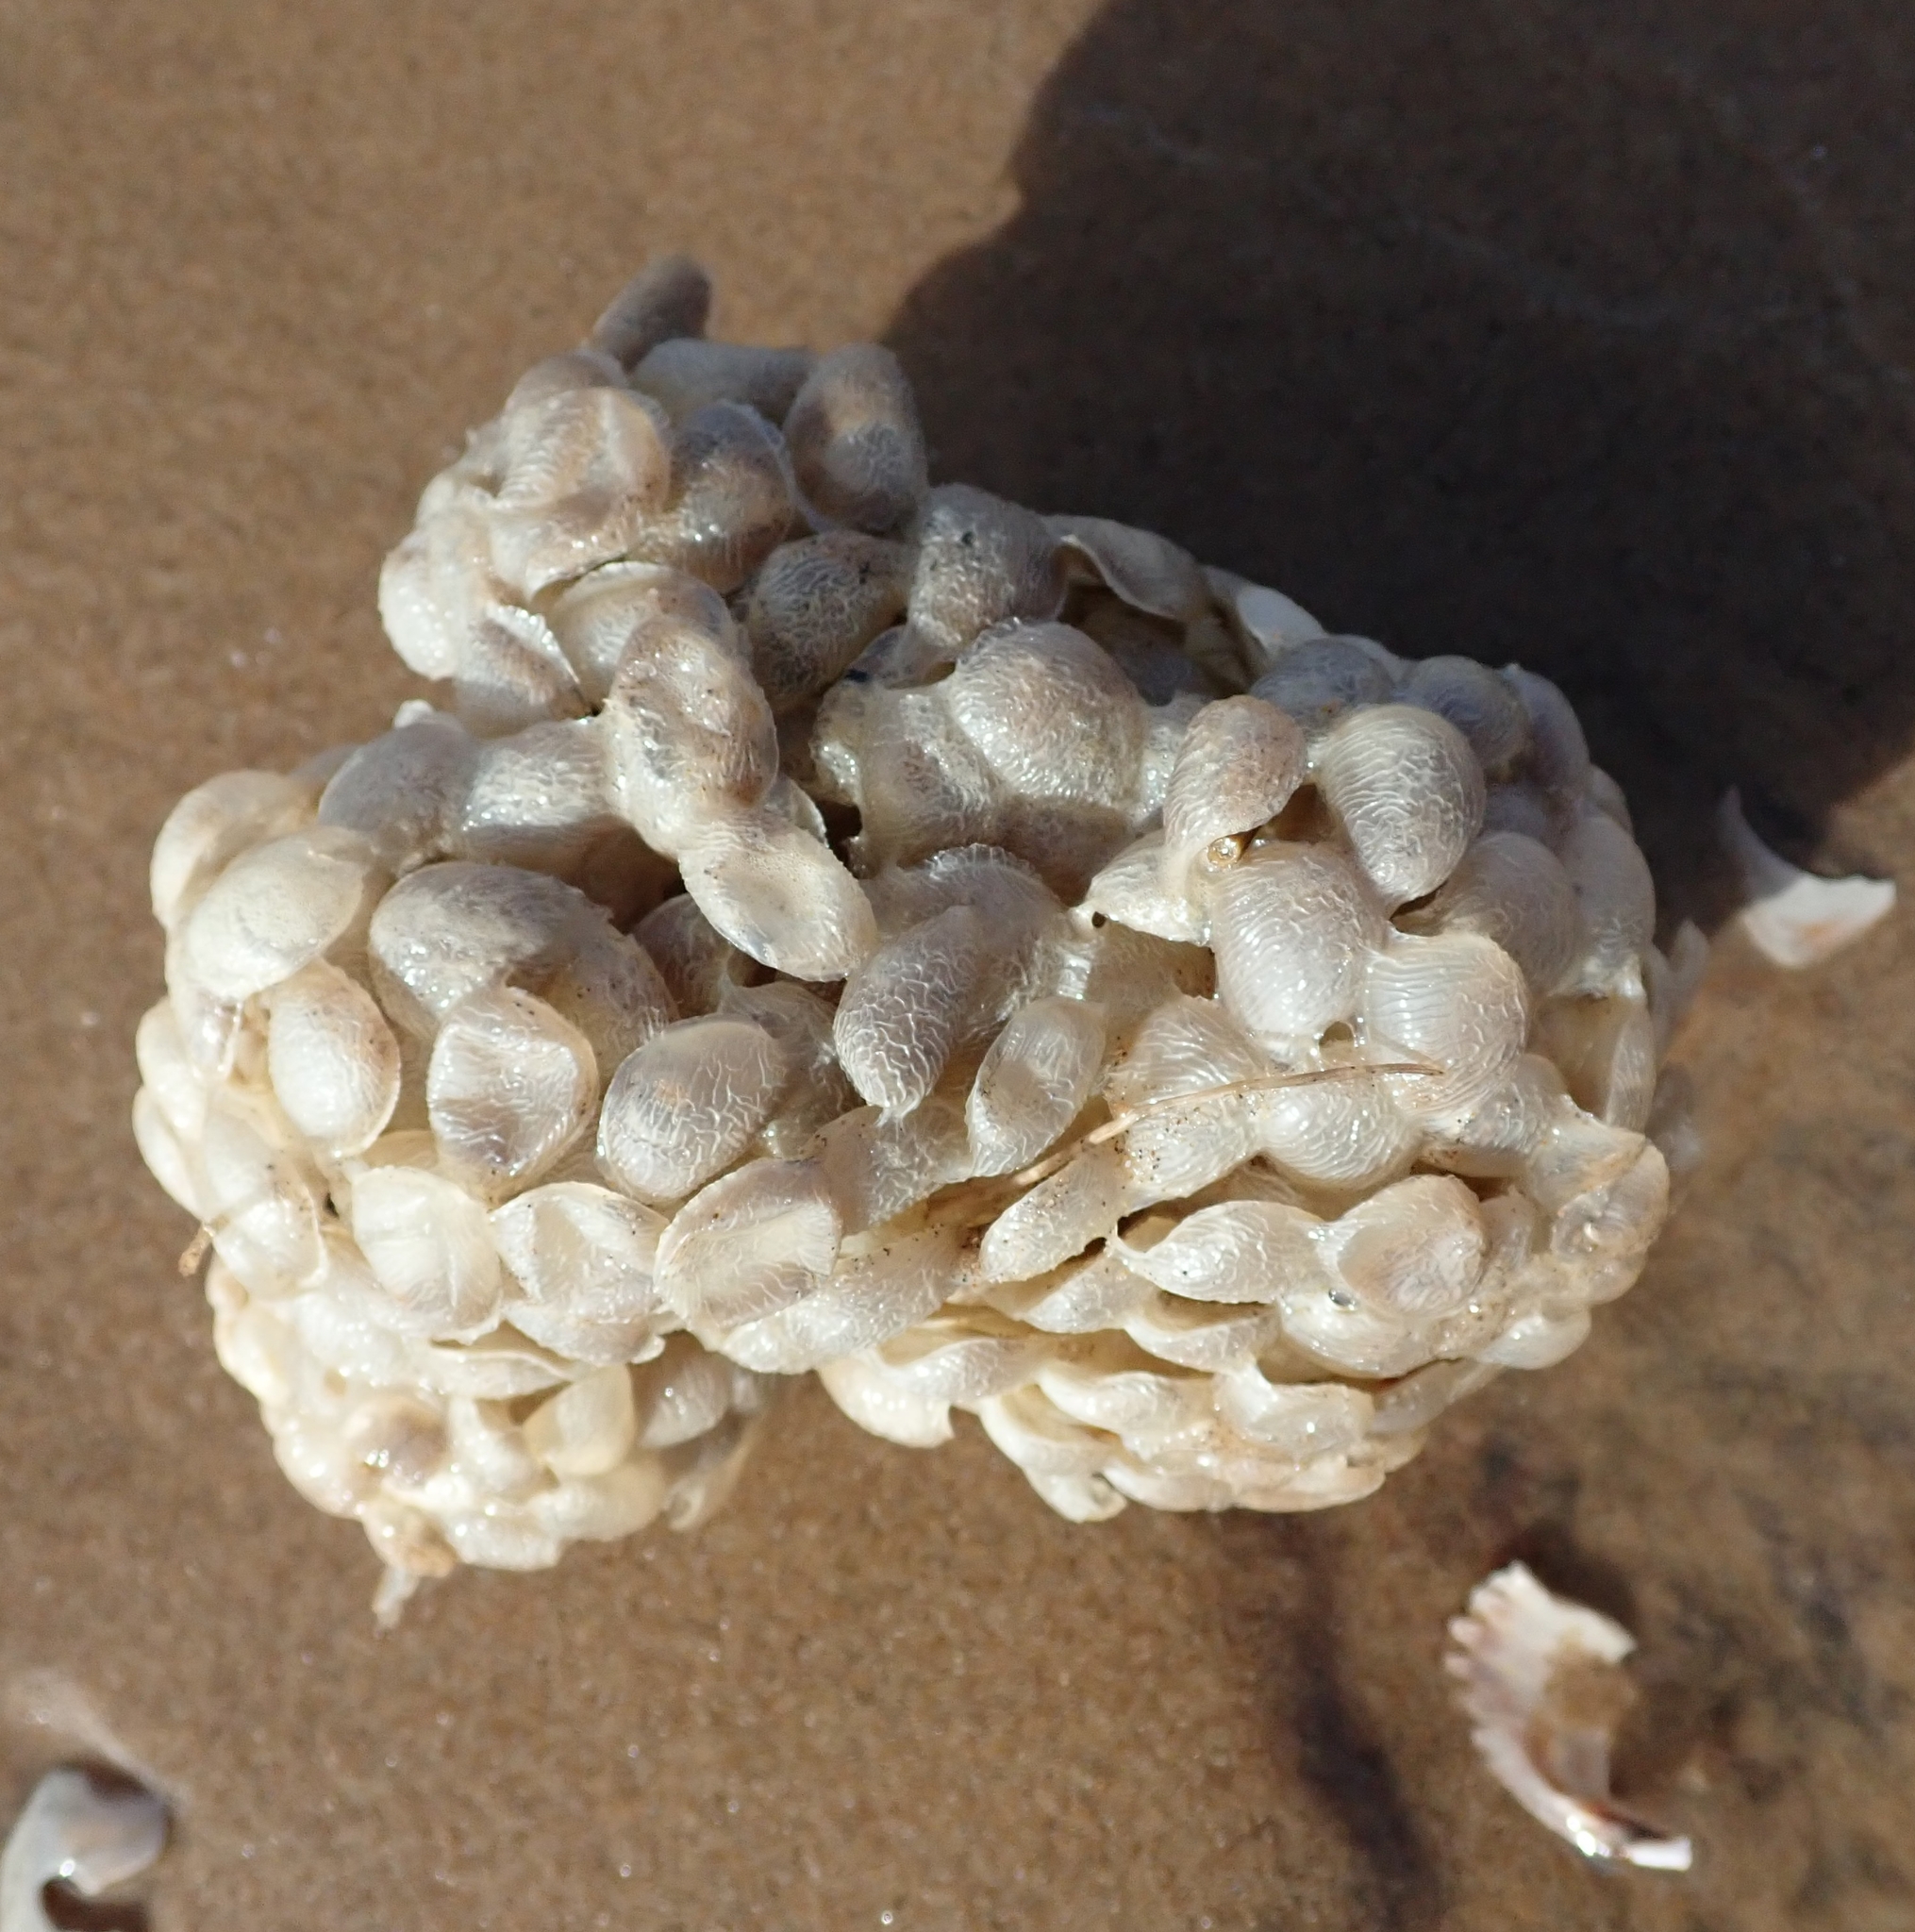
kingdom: Animalia
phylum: Mollusca
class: Gastropoda
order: Neogastropoda
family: Buccinidae
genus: Buccinum
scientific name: Buccinum undatum
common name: Common whelk
